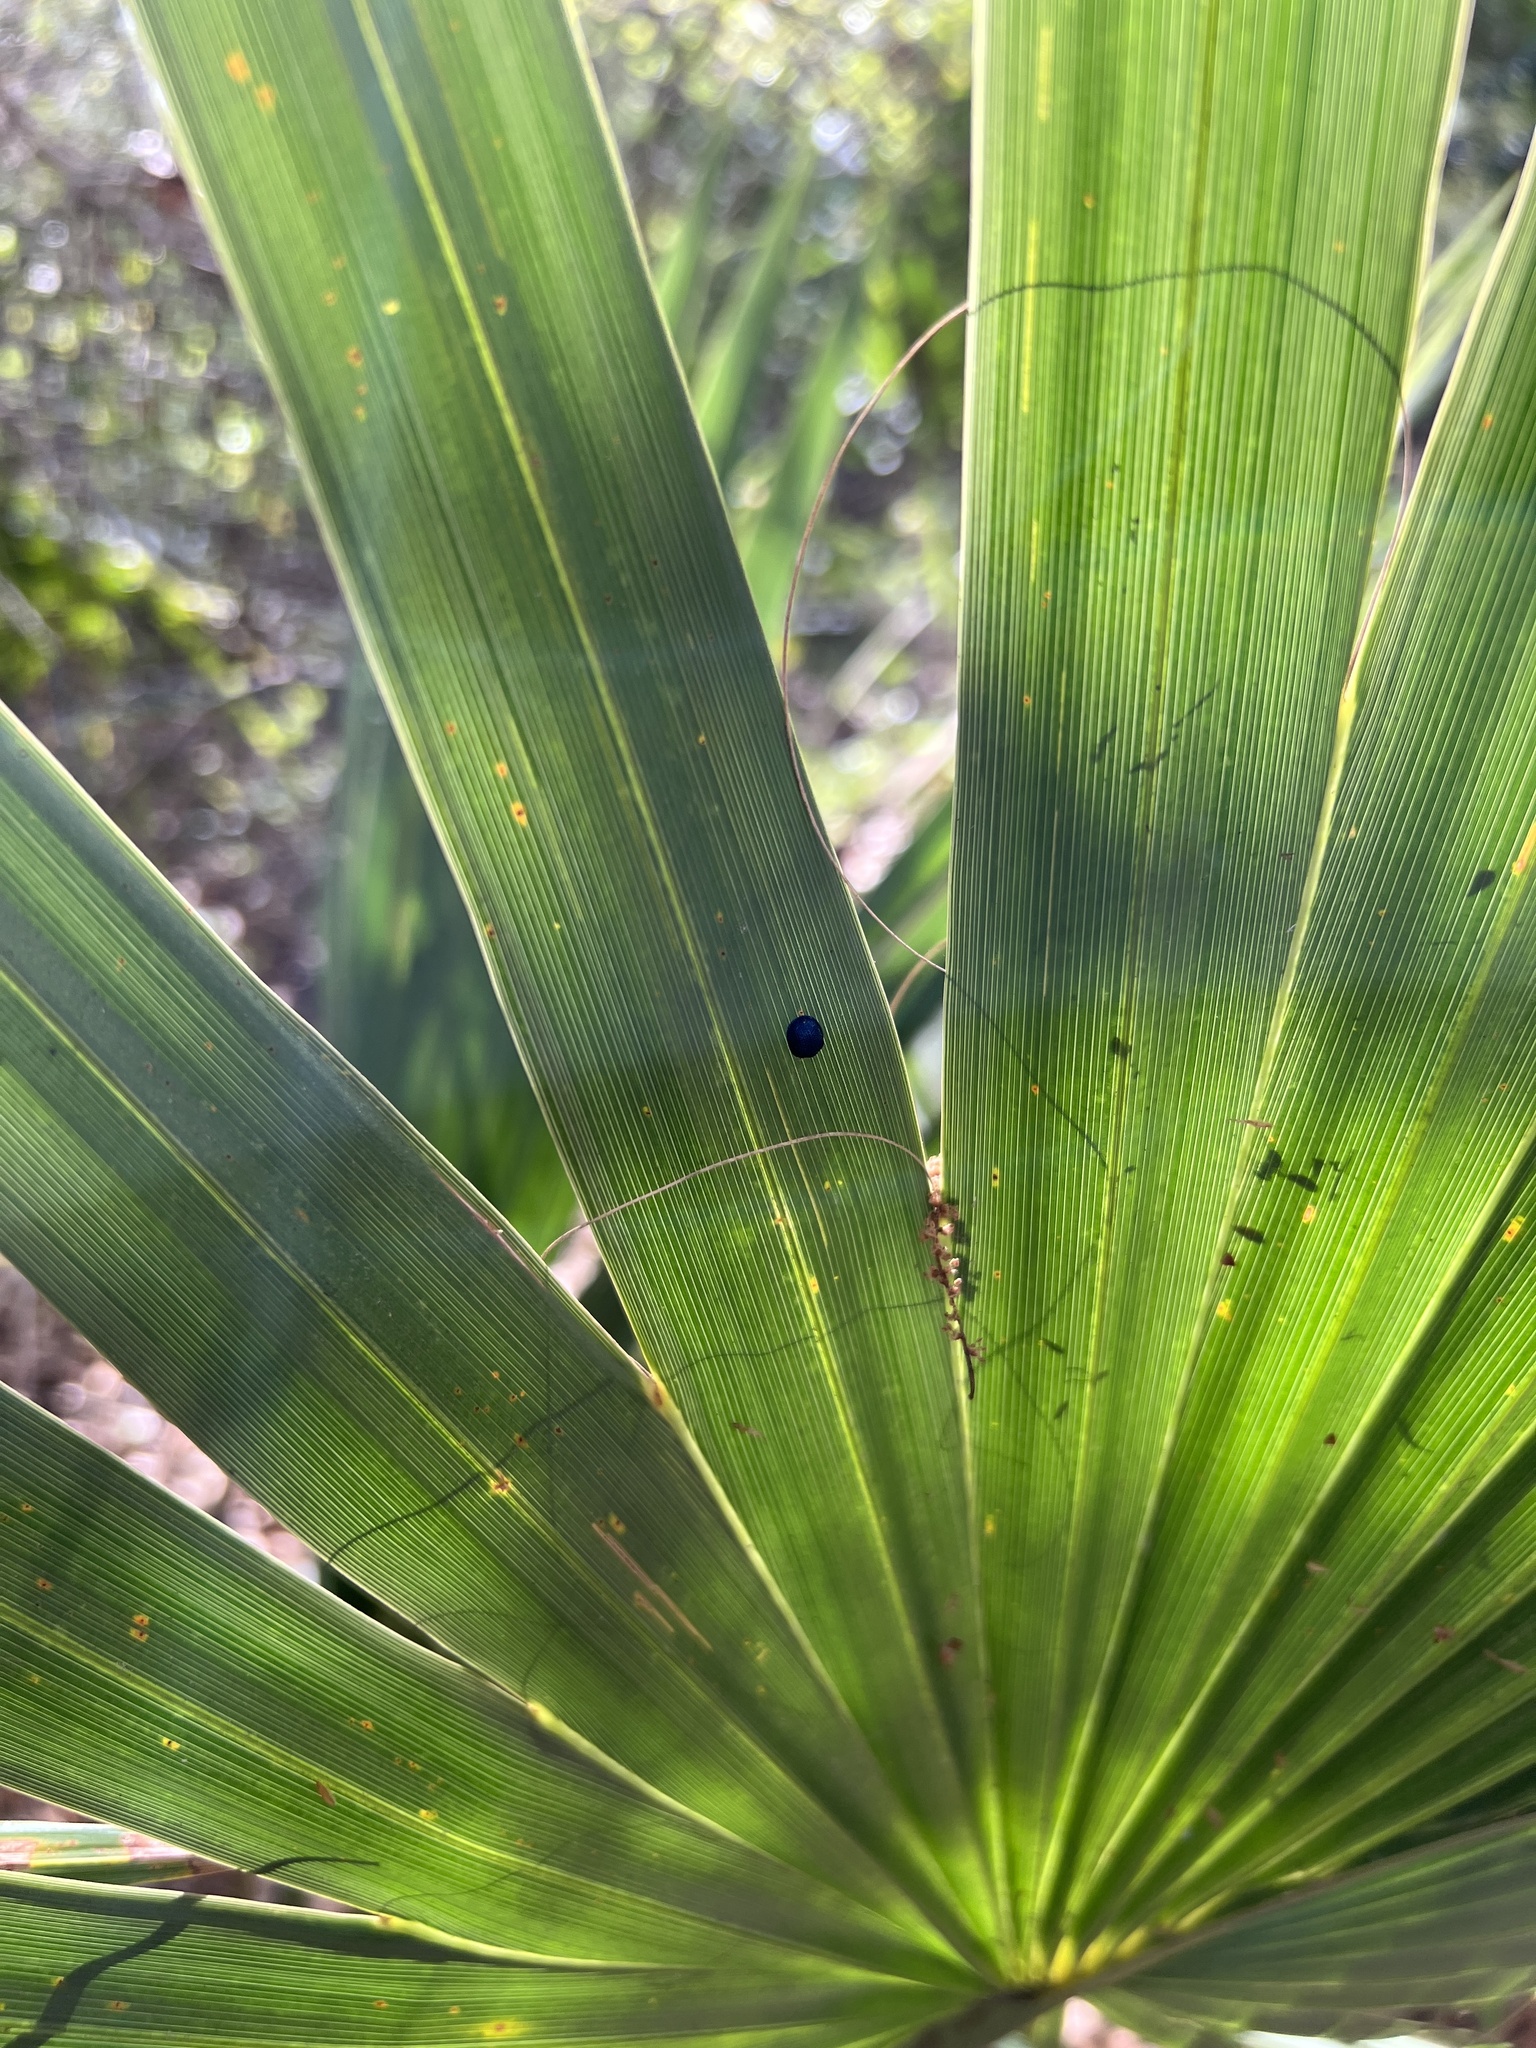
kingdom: Animalia
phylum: Arthropoda
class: Insecta
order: Coleoptera
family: Chrysomelidae
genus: Hemisphaerota
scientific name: Hemisphaerota cyanea
